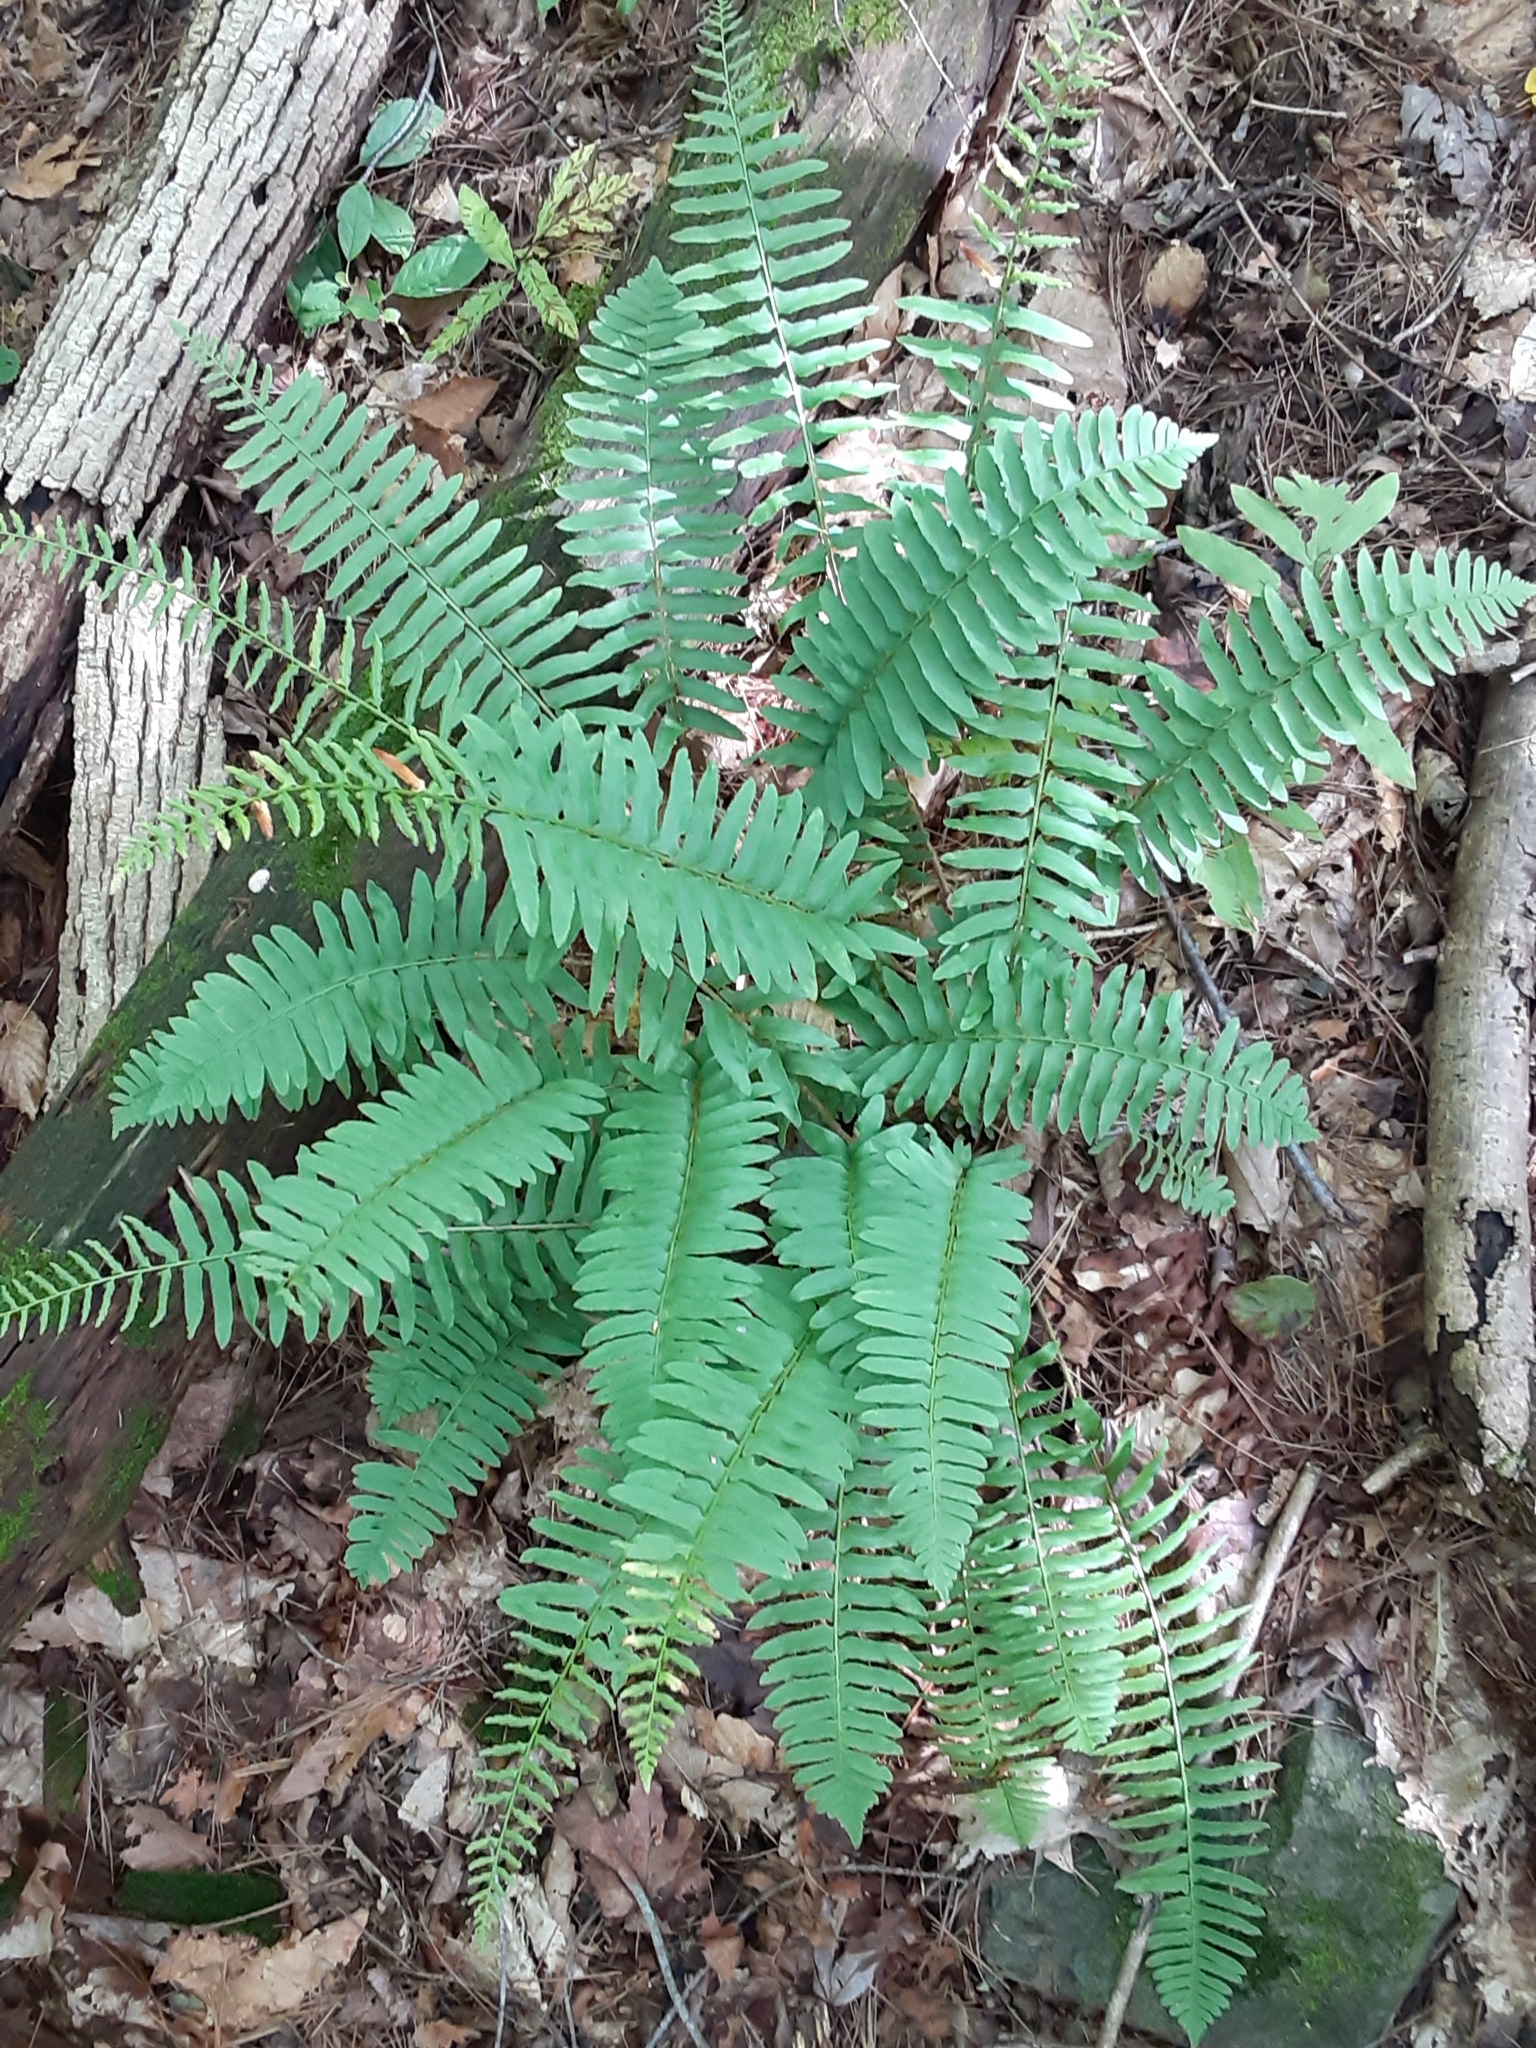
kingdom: Plantae
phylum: Tracheophyta
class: Polypodiopsida
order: Polypodiales
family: Dryopteridaceae
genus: Polystichum
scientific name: Polystichum acrostichoides
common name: Christmas fern
